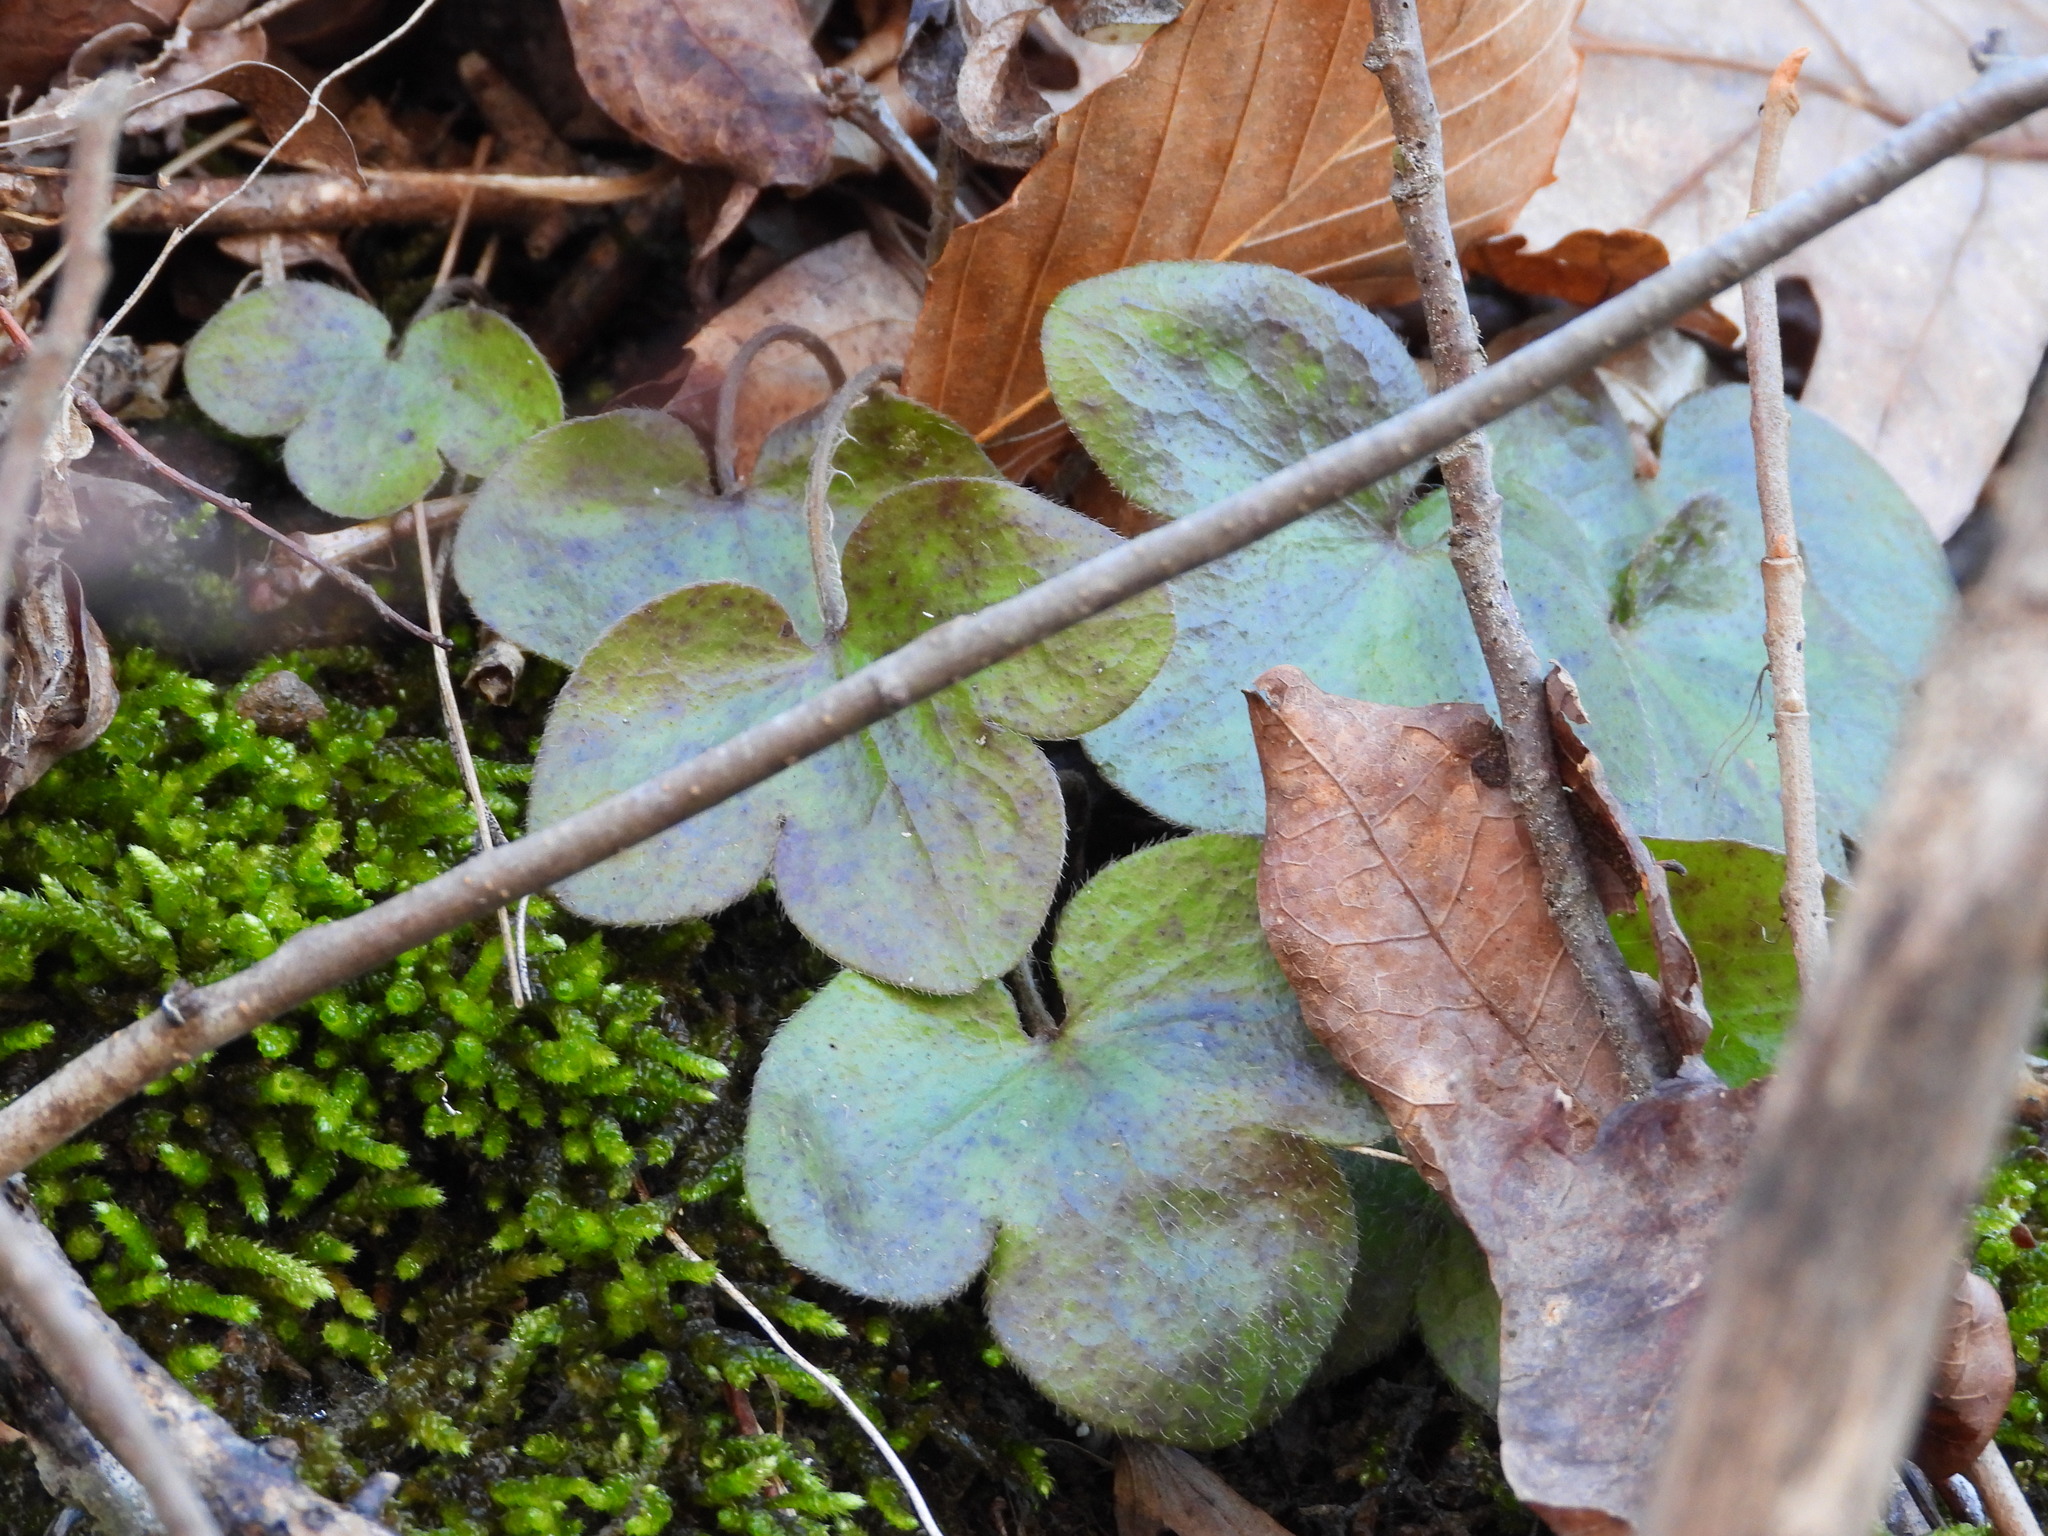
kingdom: Plantae
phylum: Tracheophyta
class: Magnoliopsida
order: Ranunculales
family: Ranunculaceae
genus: Hepatica
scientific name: Hepatica americana
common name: American hepatica
